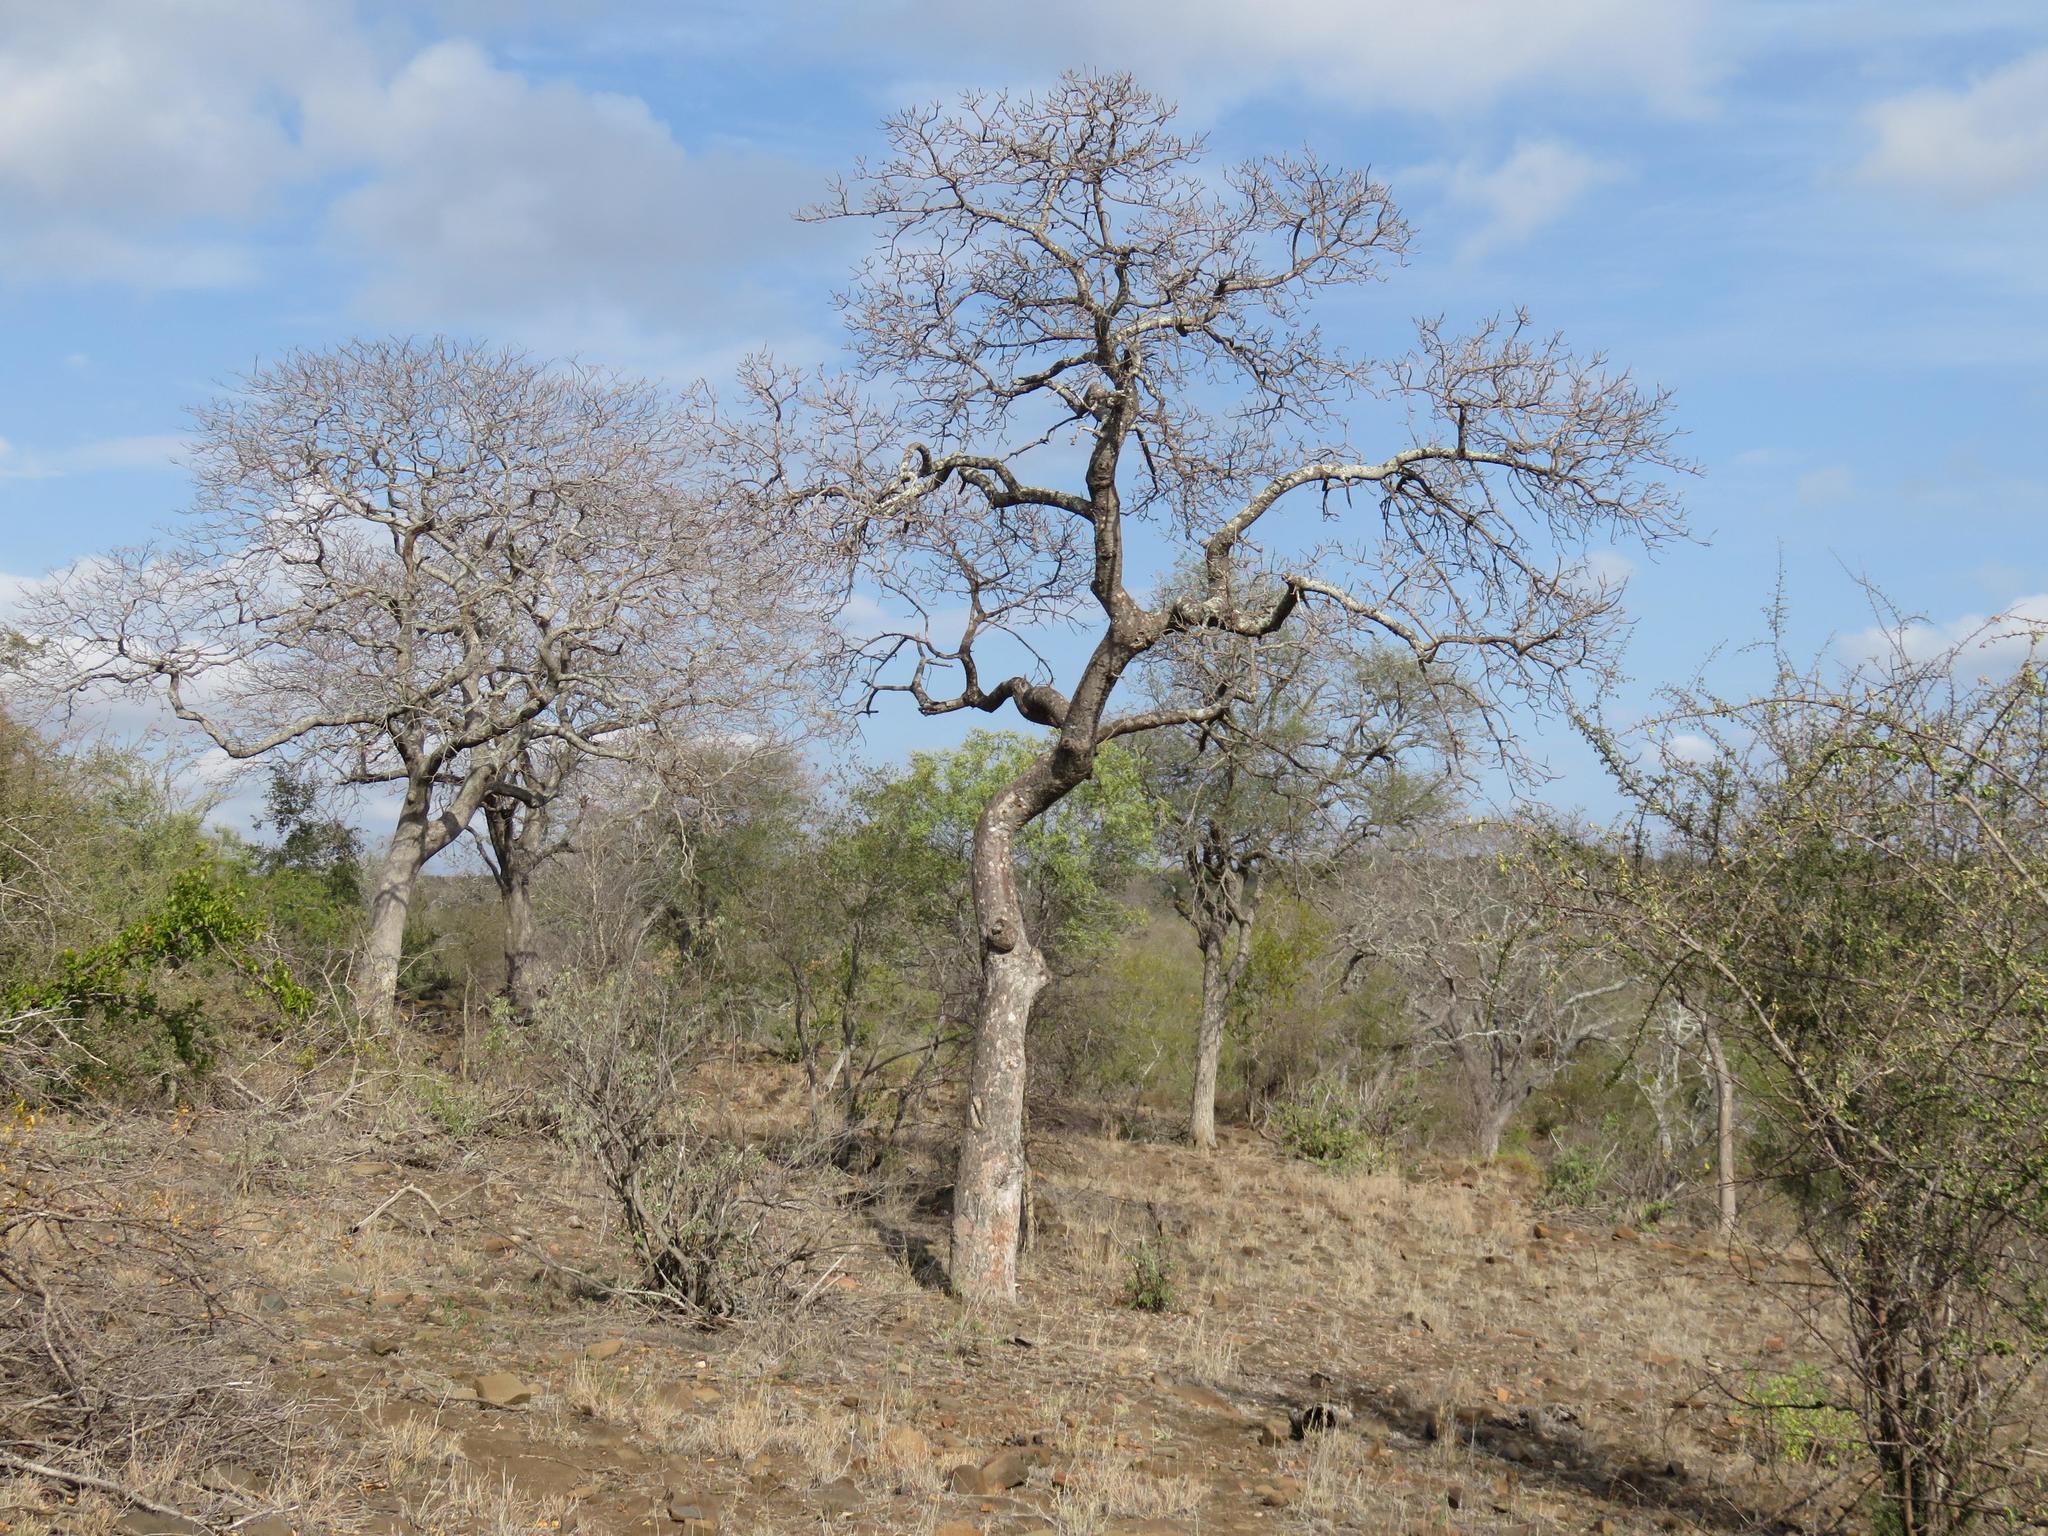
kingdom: Plantae
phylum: Tracheophyta
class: Magnoliopsida
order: Sapindales
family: Anacardiaceae
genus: Sclerocarya
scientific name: Sclerocarya birrea
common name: Marula
